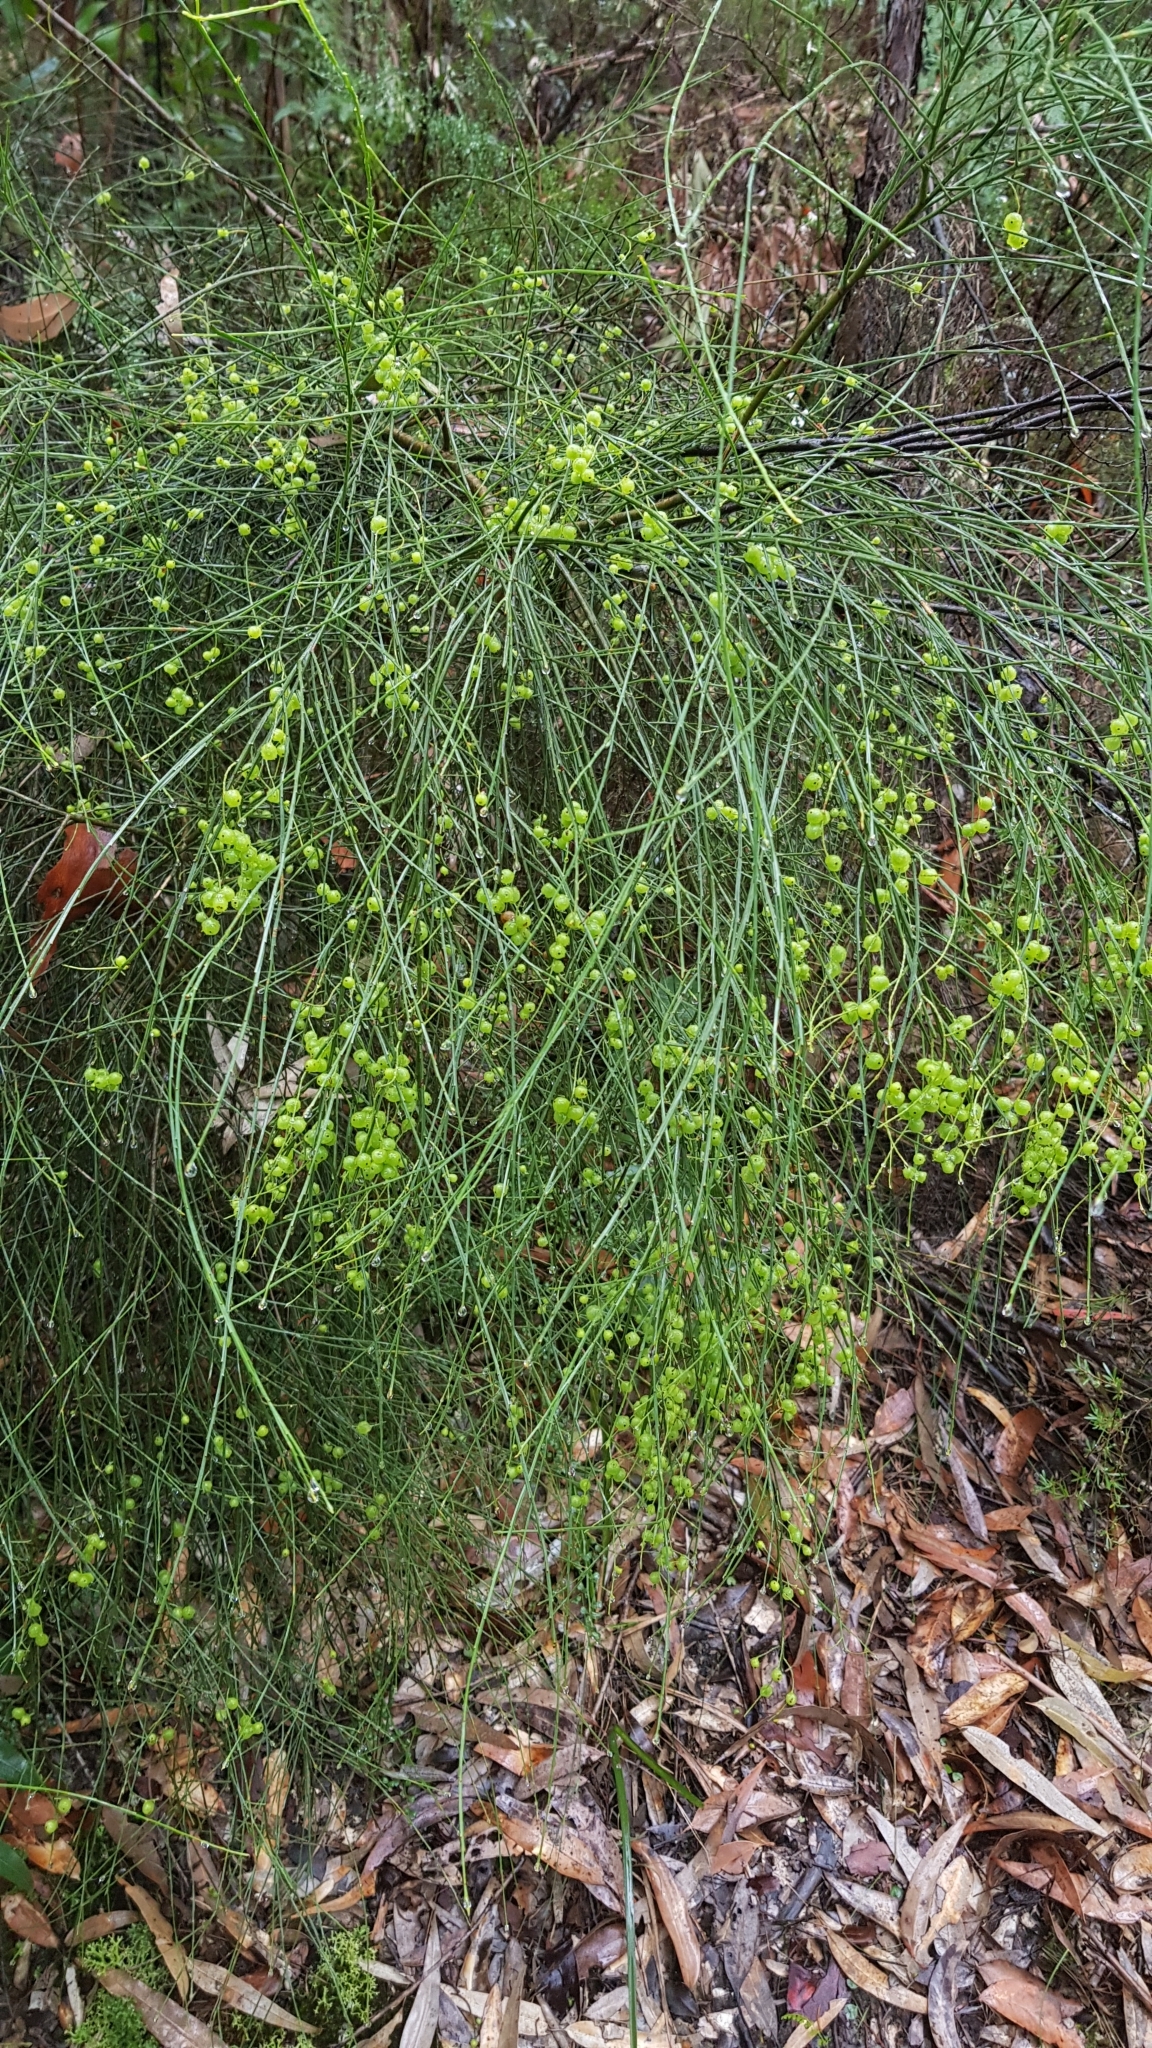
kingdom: Plantae
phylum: Tracheophyta
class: Magnoliopsida
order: Santalales
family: Amphorogynaceae
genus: Leptomeria
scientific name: Leptomeria acida
